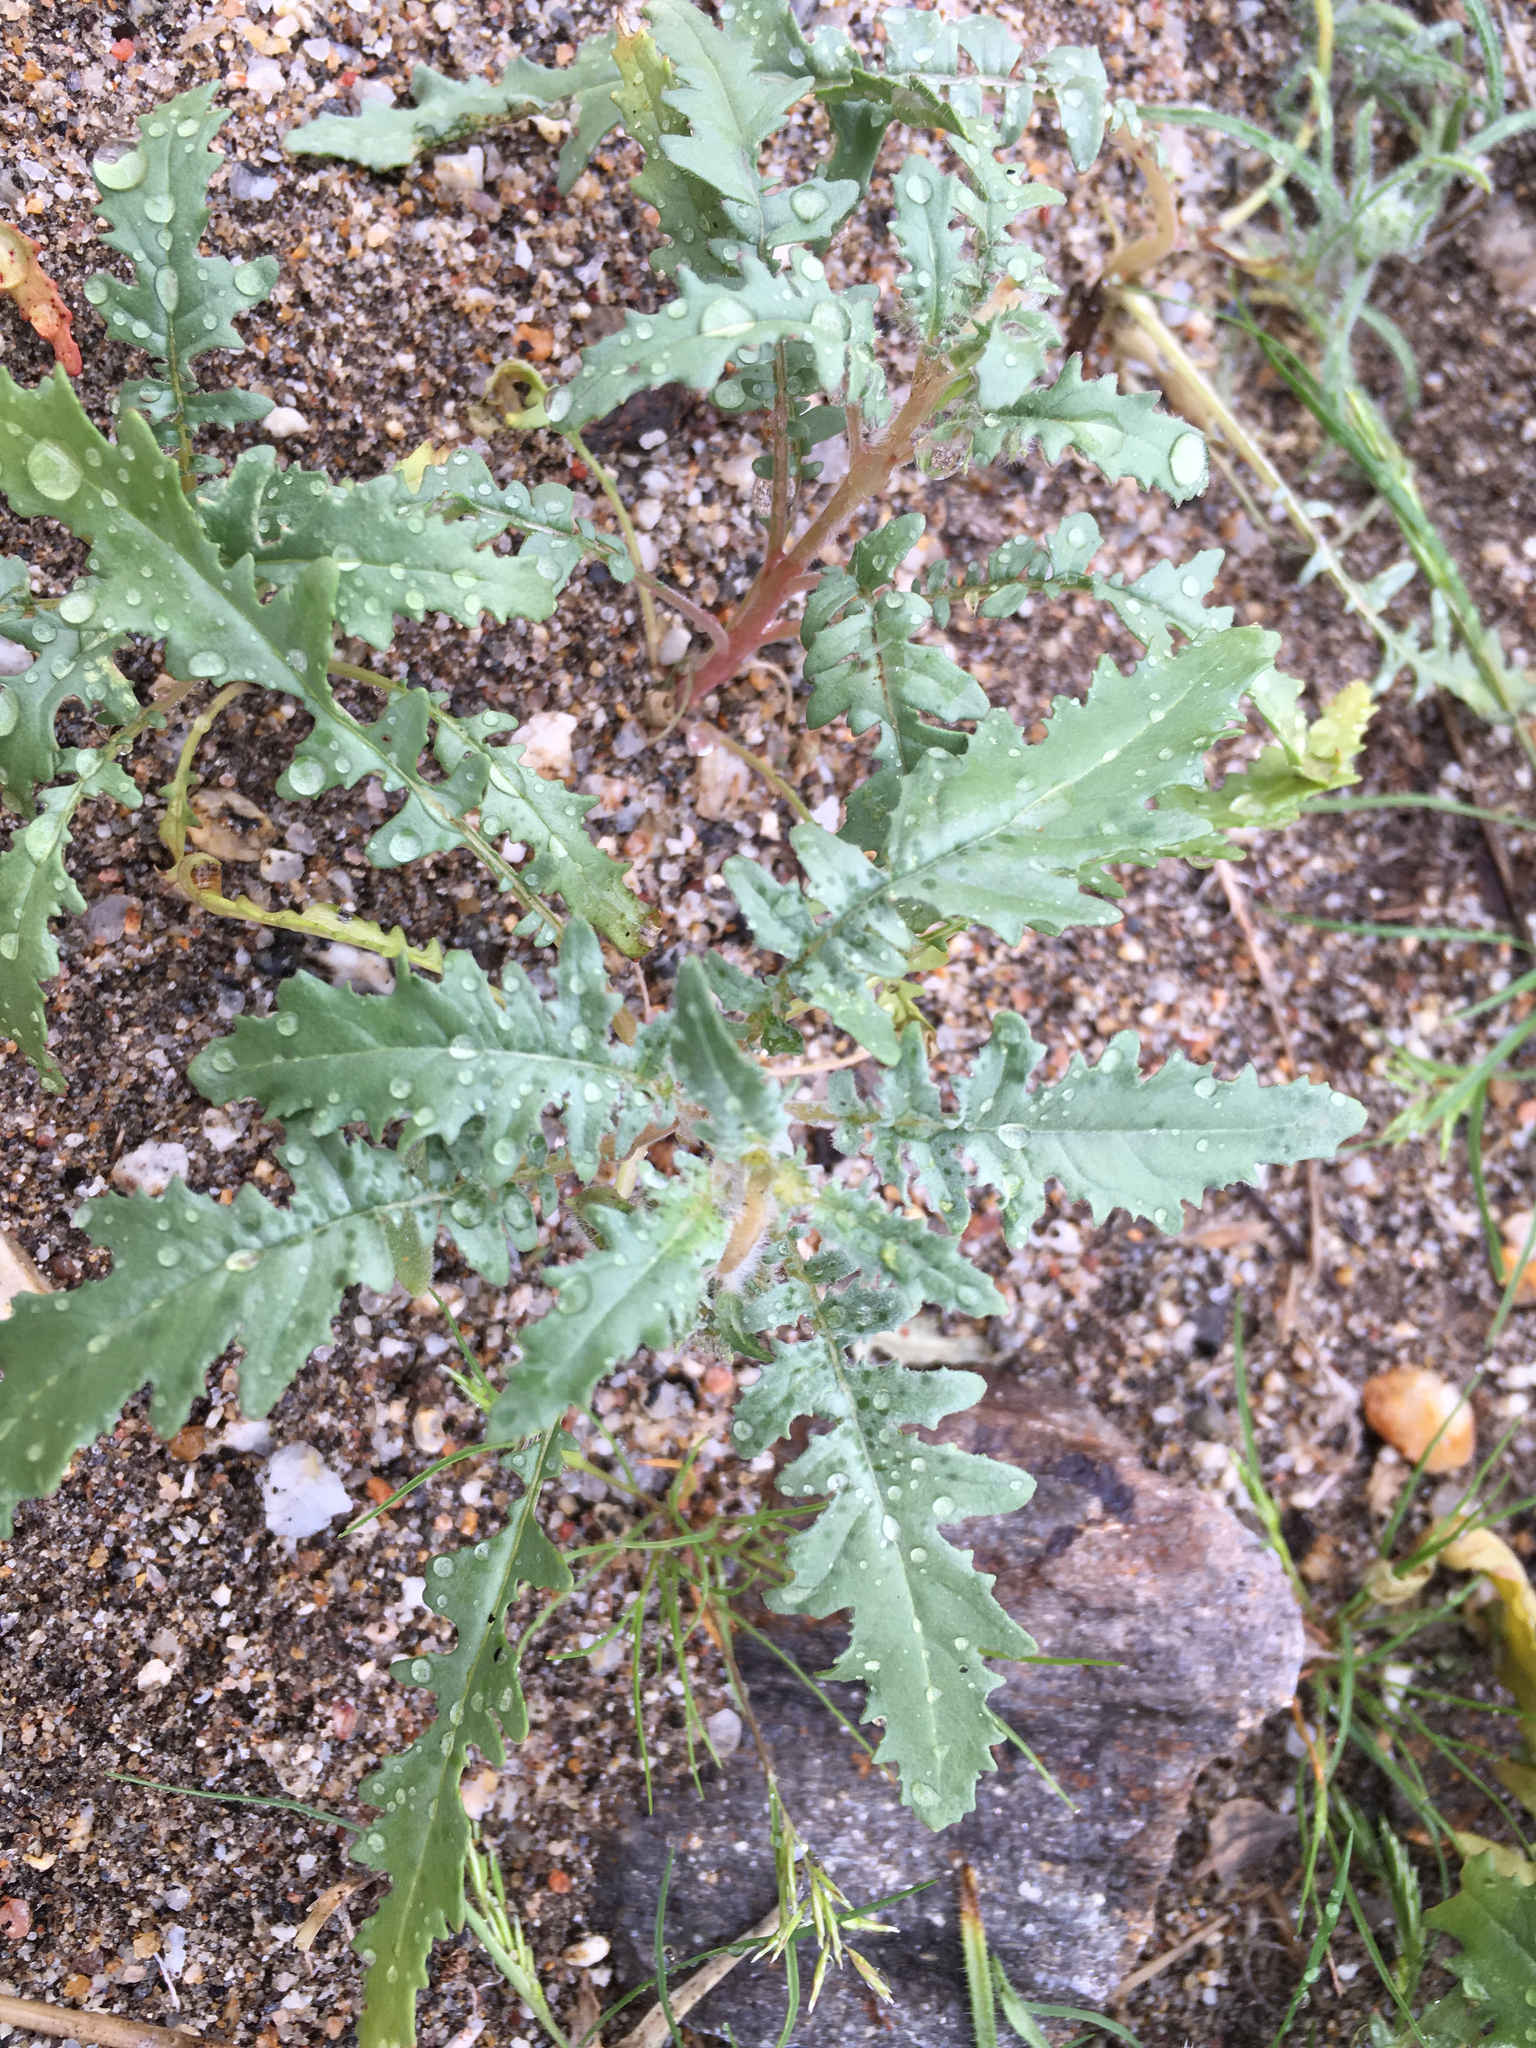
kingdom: Plantae
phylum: Tracheophyta
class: Magnoliopsida
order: Myrtales
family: Onagraceae
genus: Eulobus
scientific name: Eulobus californicus
